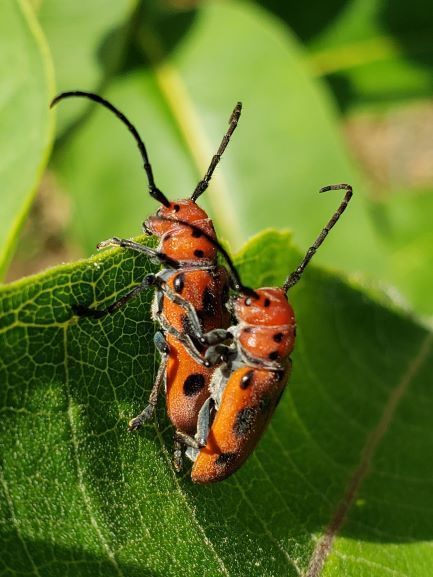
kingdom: Animalia
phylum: Arthropoda
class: Insecta
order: Coleoptera
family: Cerambycidae
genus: Tetraopes
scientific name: Tetraopes tetrophthalmus
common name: Red milkweed beetle
